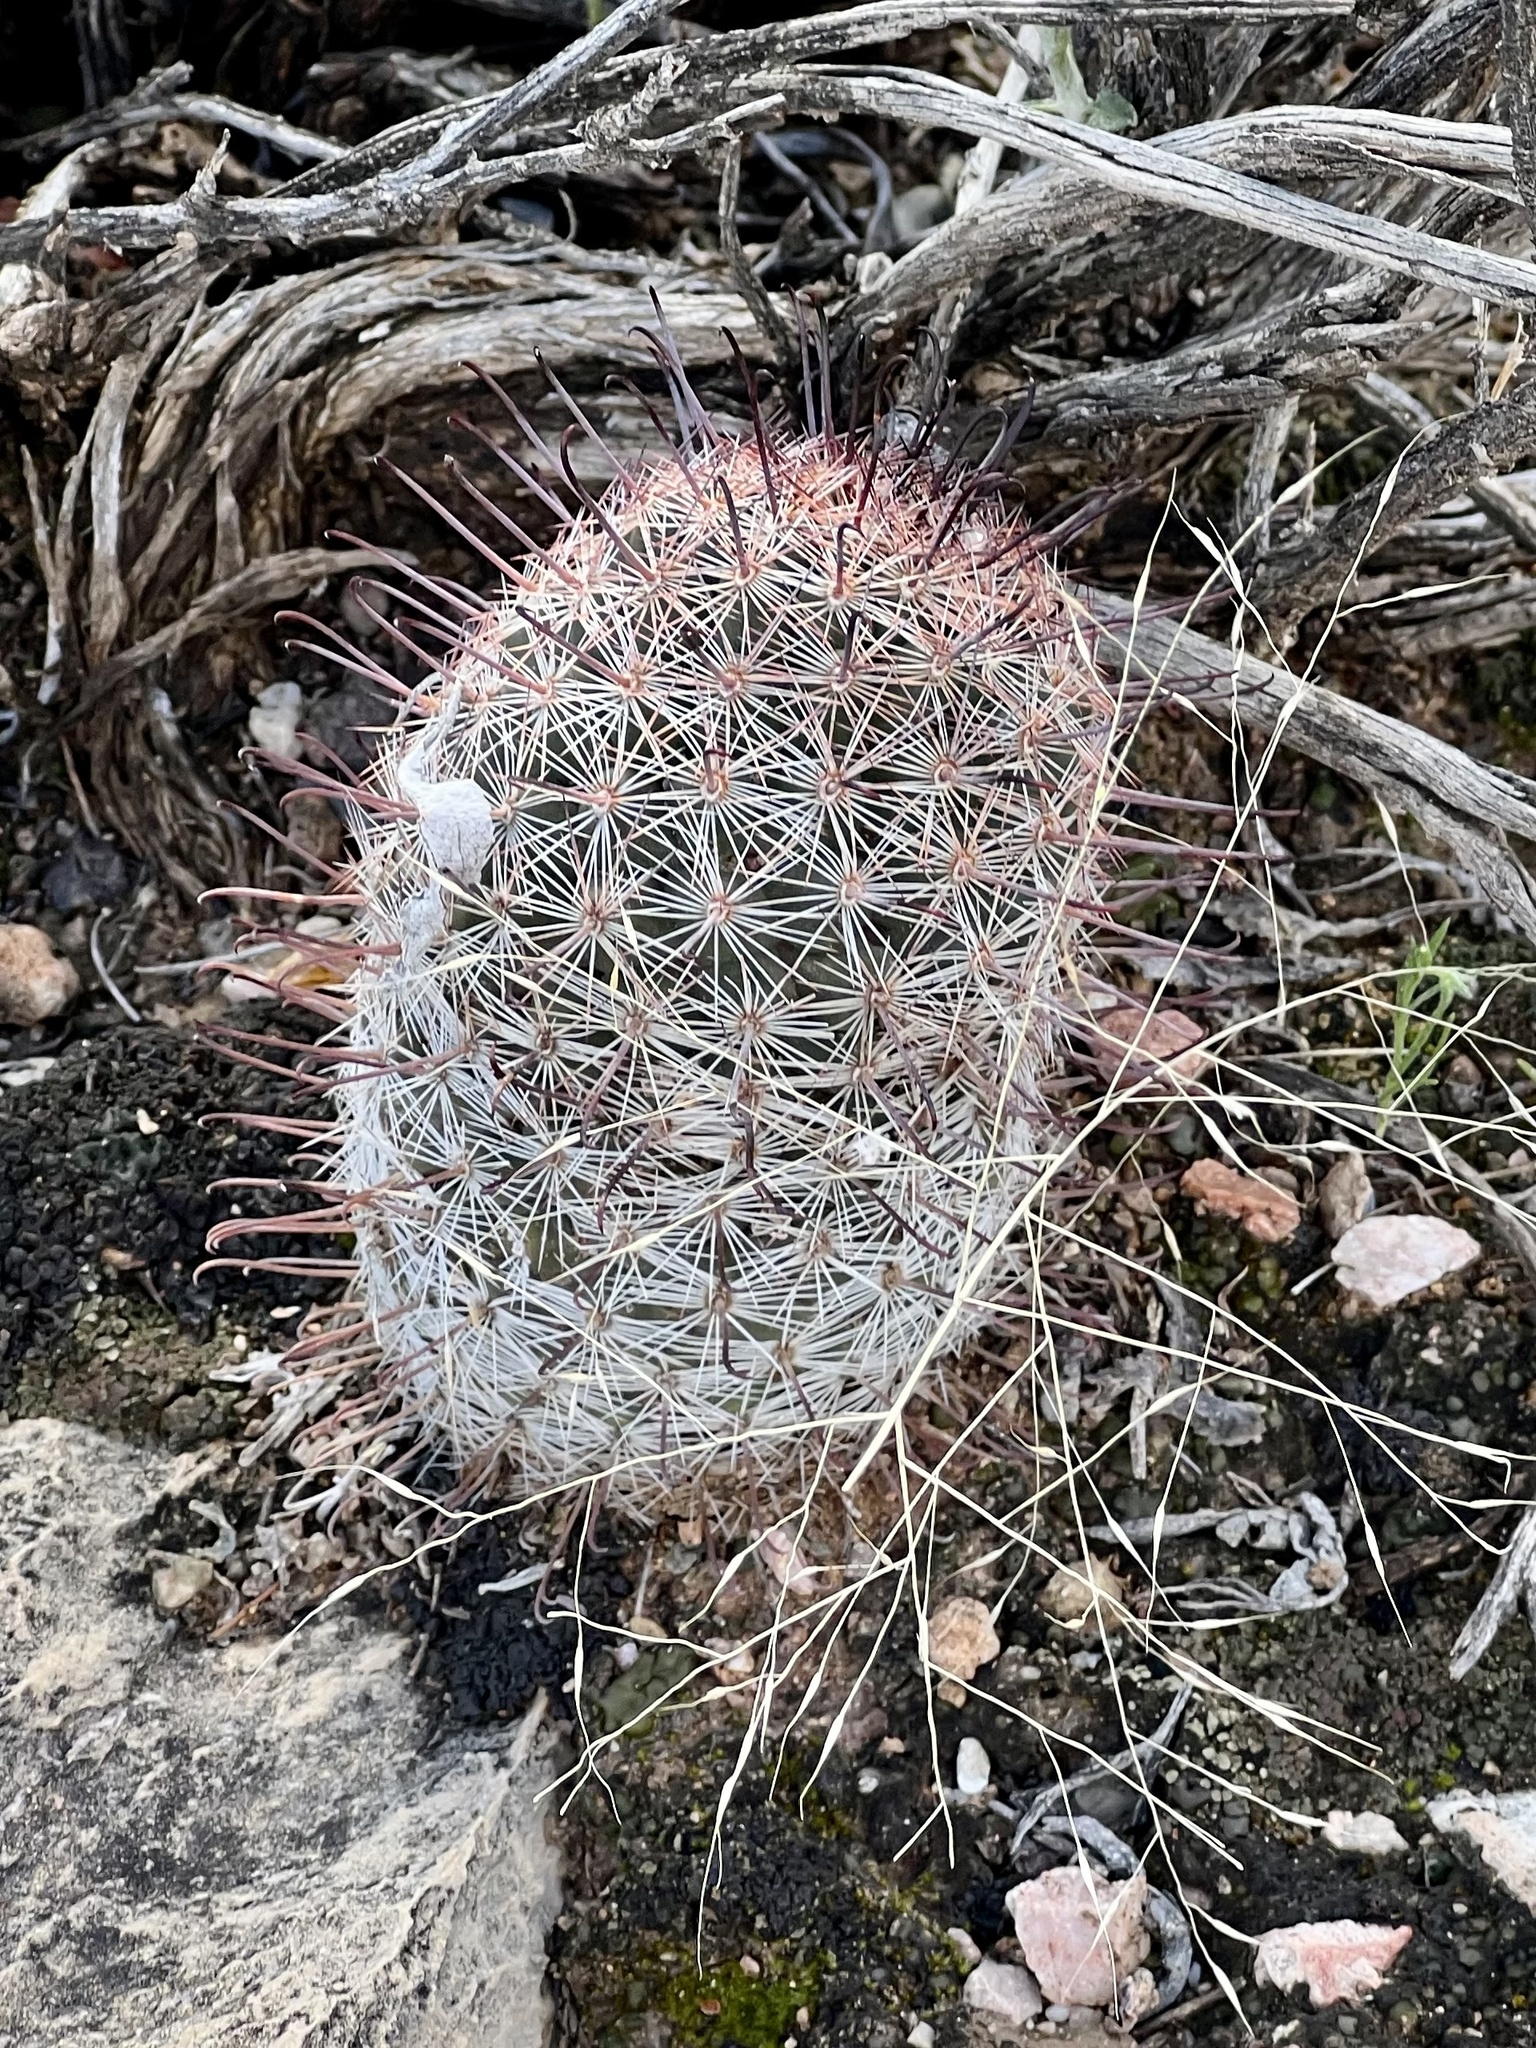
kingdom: Plantae
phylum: Tracheophyta
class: Magnoliopsida
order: Caryophyllales
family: Cactaceae
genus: Cochemiea
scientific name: Cochemiea grahamii
